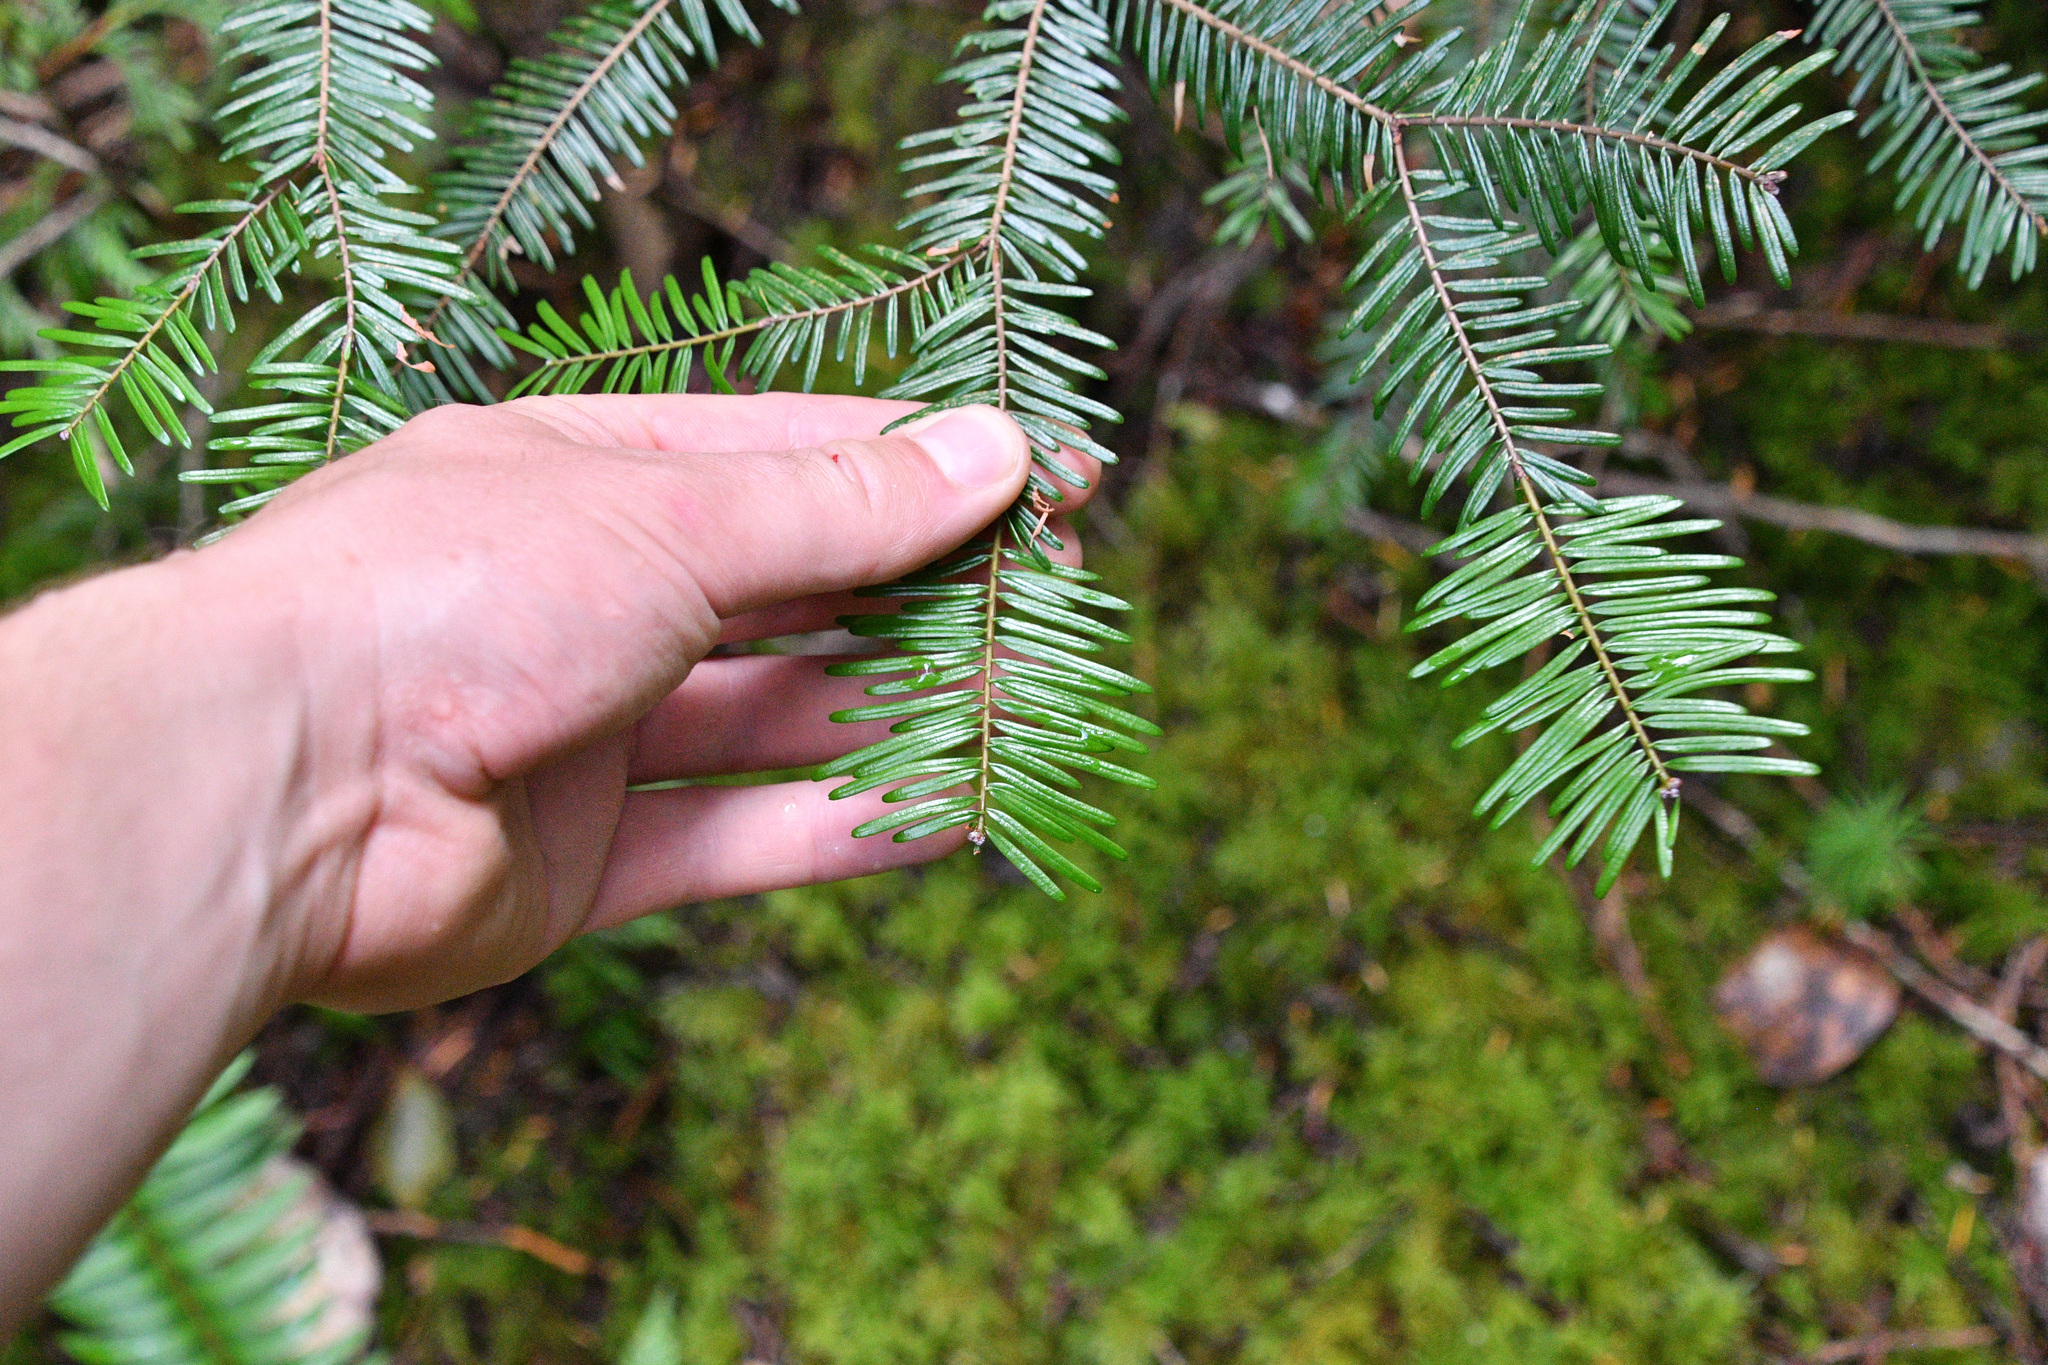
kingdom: Plantae
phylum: Tracheophyta
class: Pinopsida
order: Pinales
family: Pinaceae
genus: Abies
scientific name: Abies grandis
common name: Giant fir
